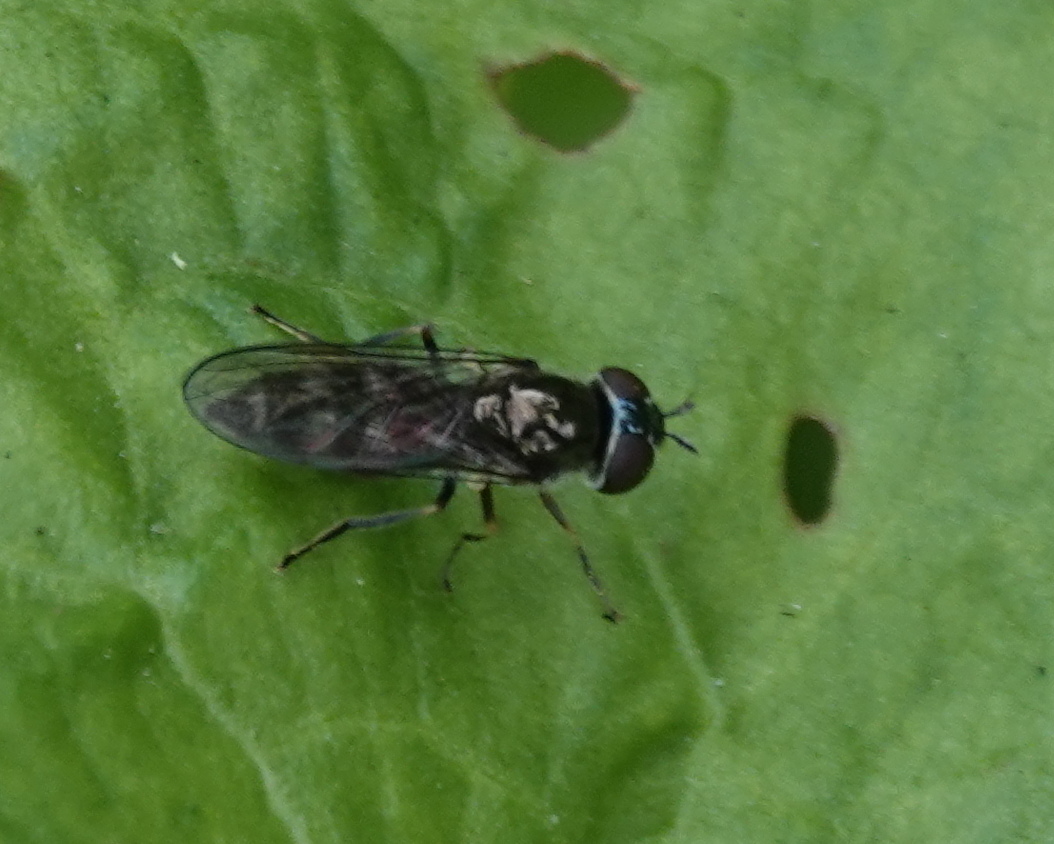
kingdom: Animalia
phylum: Arthropoda
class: Insecta
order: Diptera
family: Syrphidae
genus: Platycheirus
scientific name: Platycheirus albimanus
